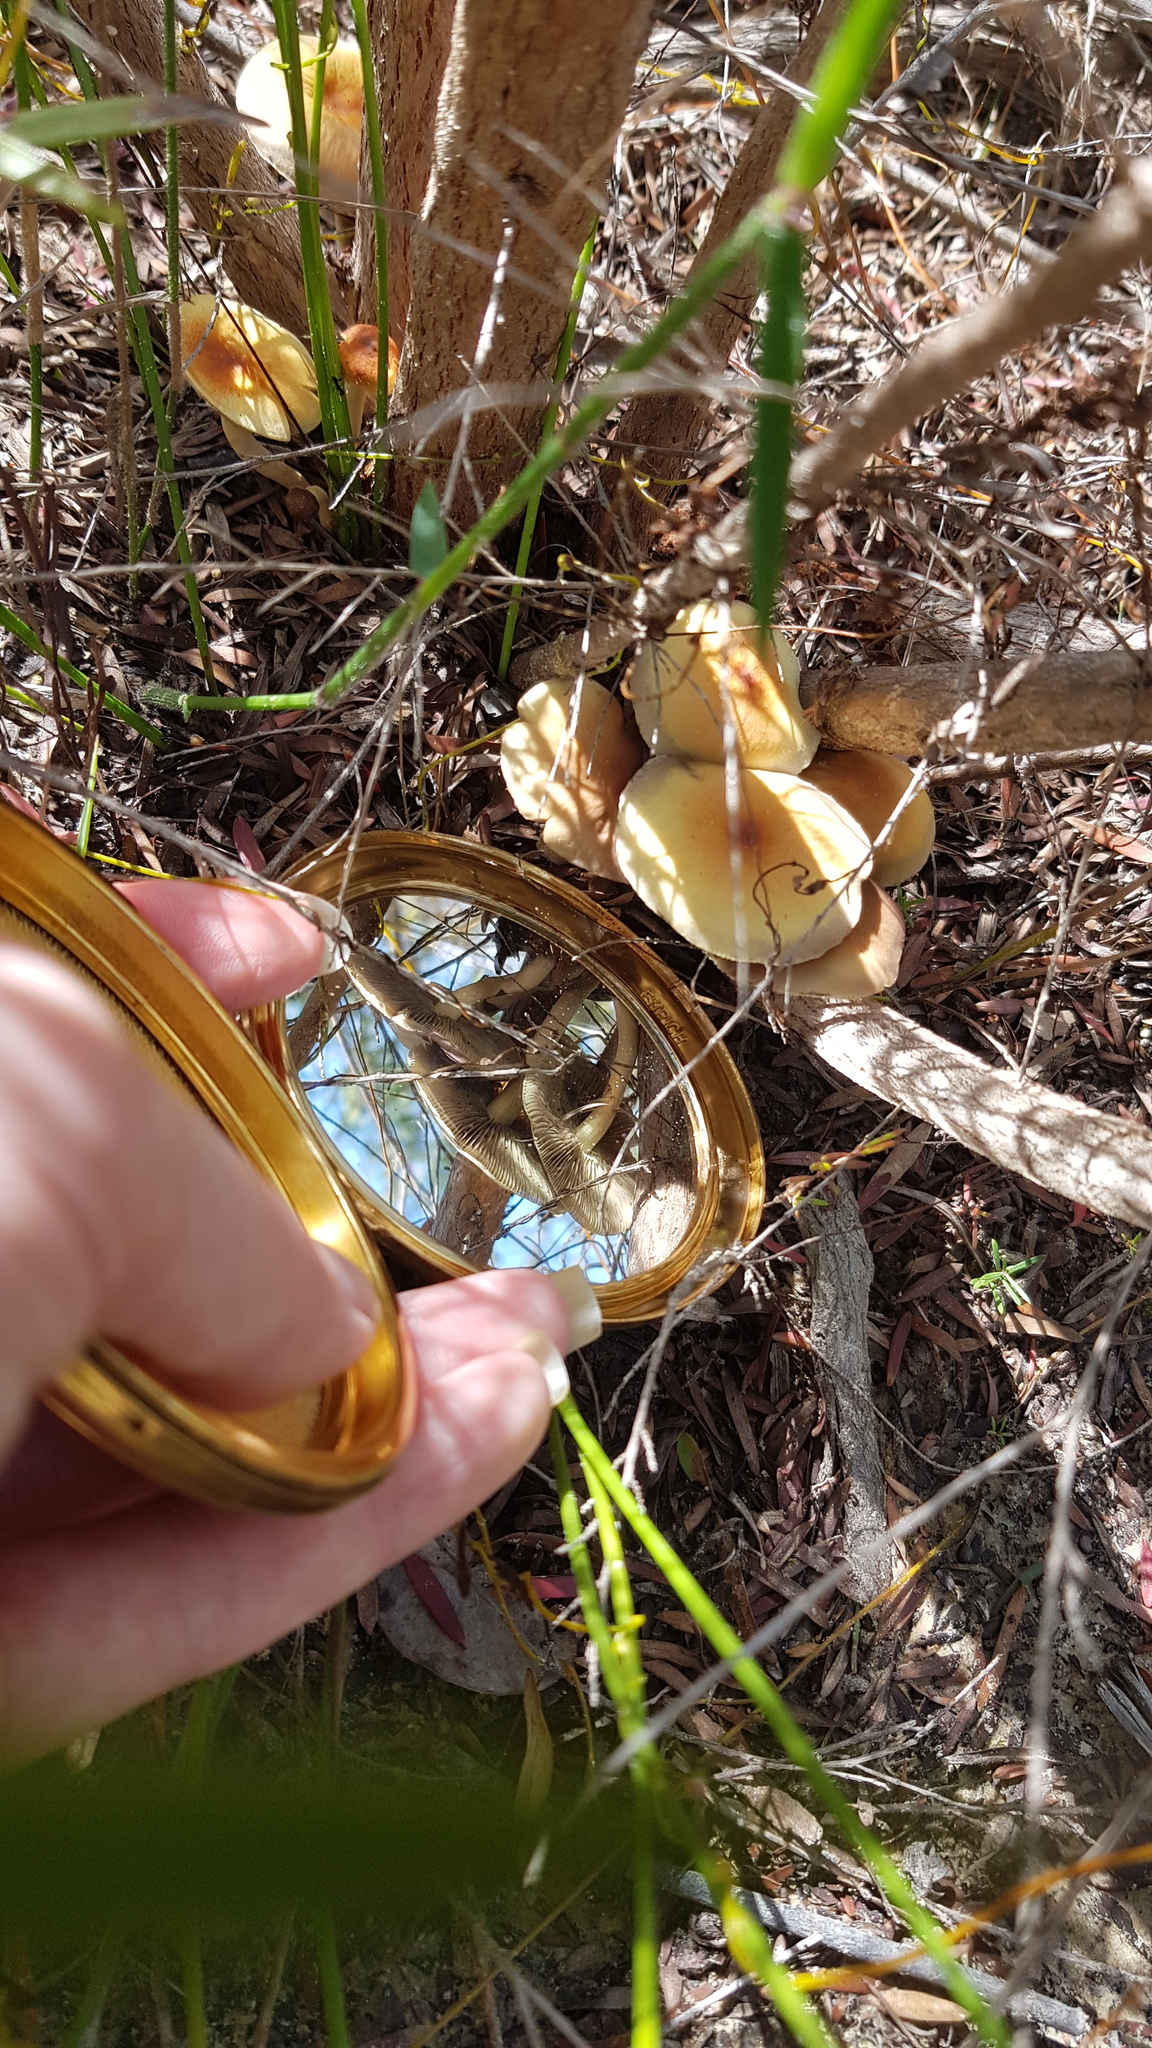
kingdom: Fungi
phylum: Basidiomycota
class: Agaricomycetes
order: Agaricales
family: Strophariaceae
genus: Hypholoma
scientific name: Hypholoma fasciculare
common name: Sulphur tuft
